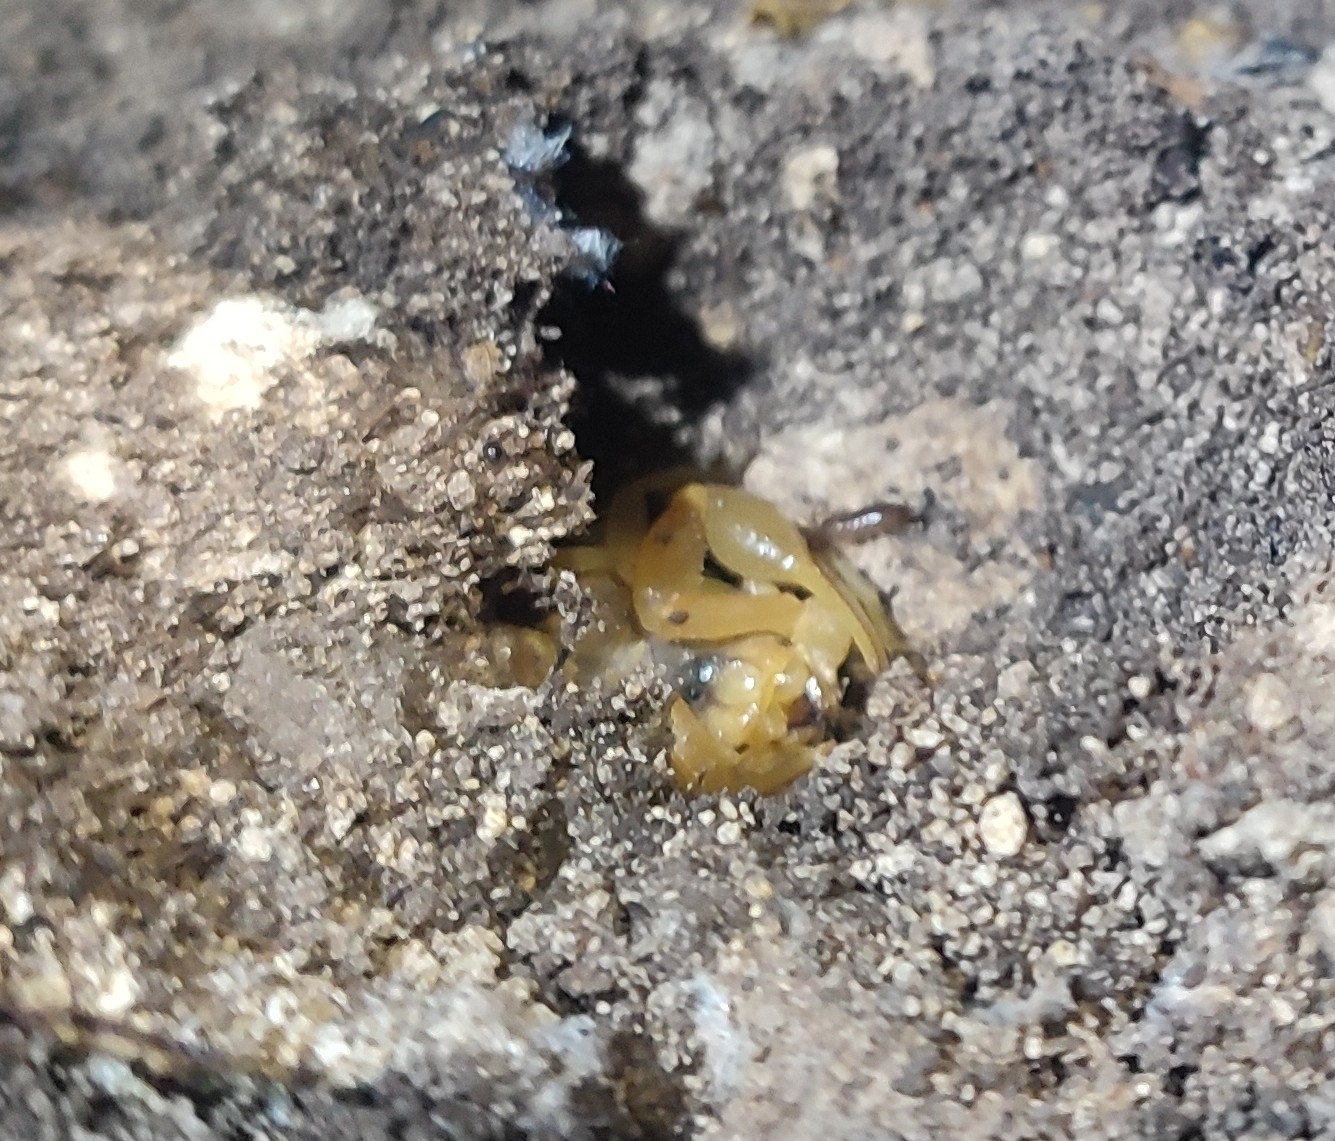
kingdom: Animalia
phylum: Arthropoda
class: Arachnida
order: Scorpiones
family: Buthidae
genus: Buthus
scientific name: Buthus occitanus
